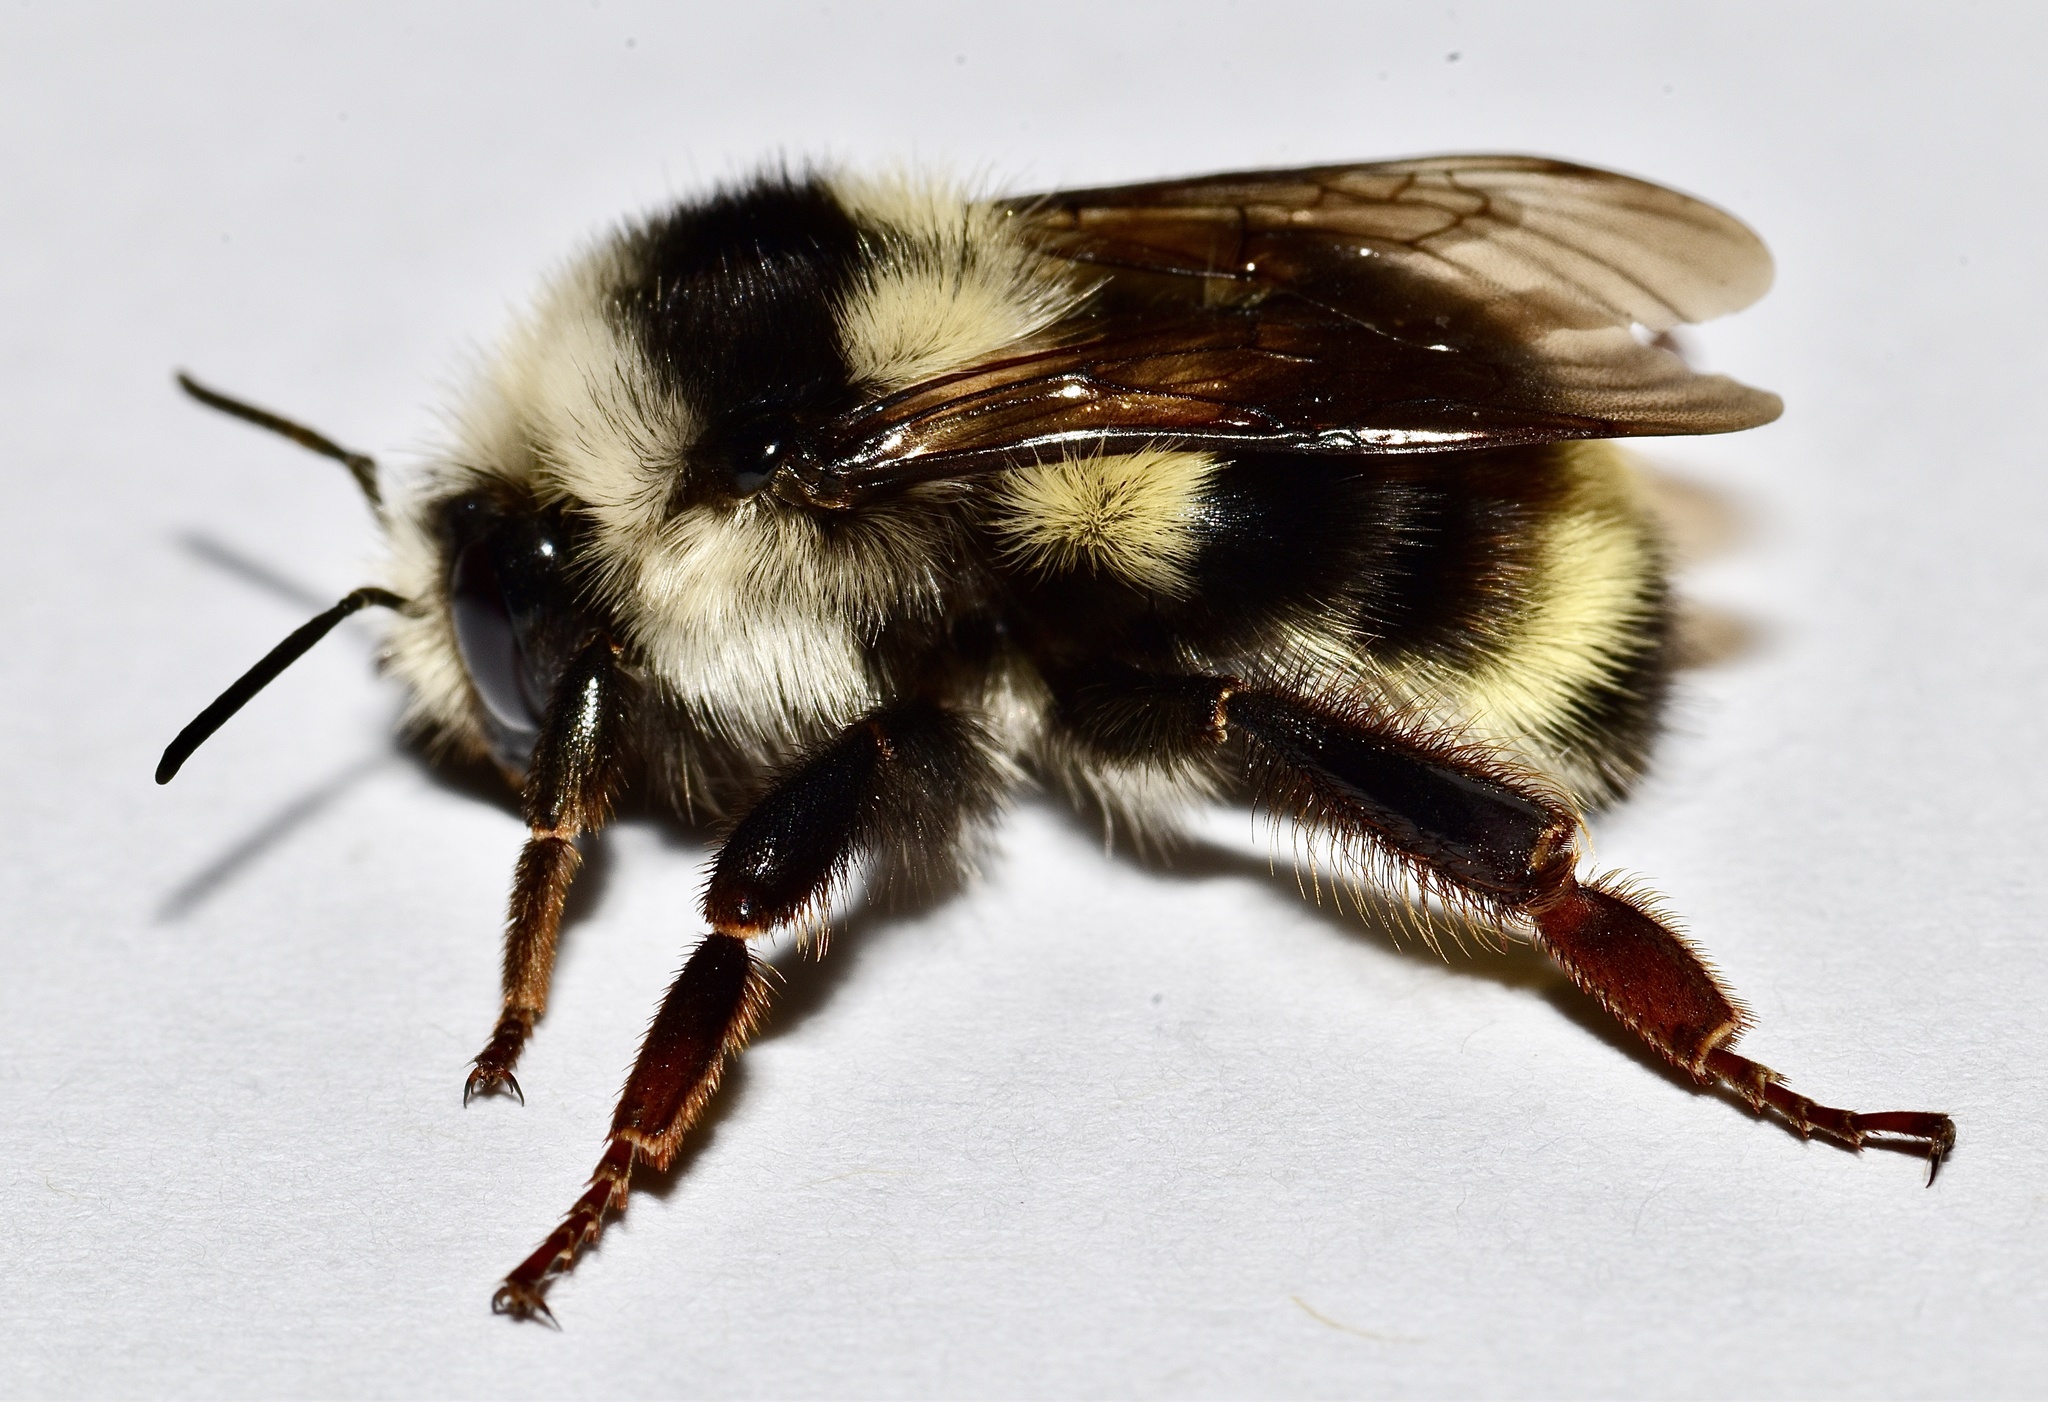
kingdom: Animalia
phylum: Arthropoda
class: Insecta
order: Hymenoptera
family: Apidae
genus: Bombus
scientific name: Bombus vancouverensis
